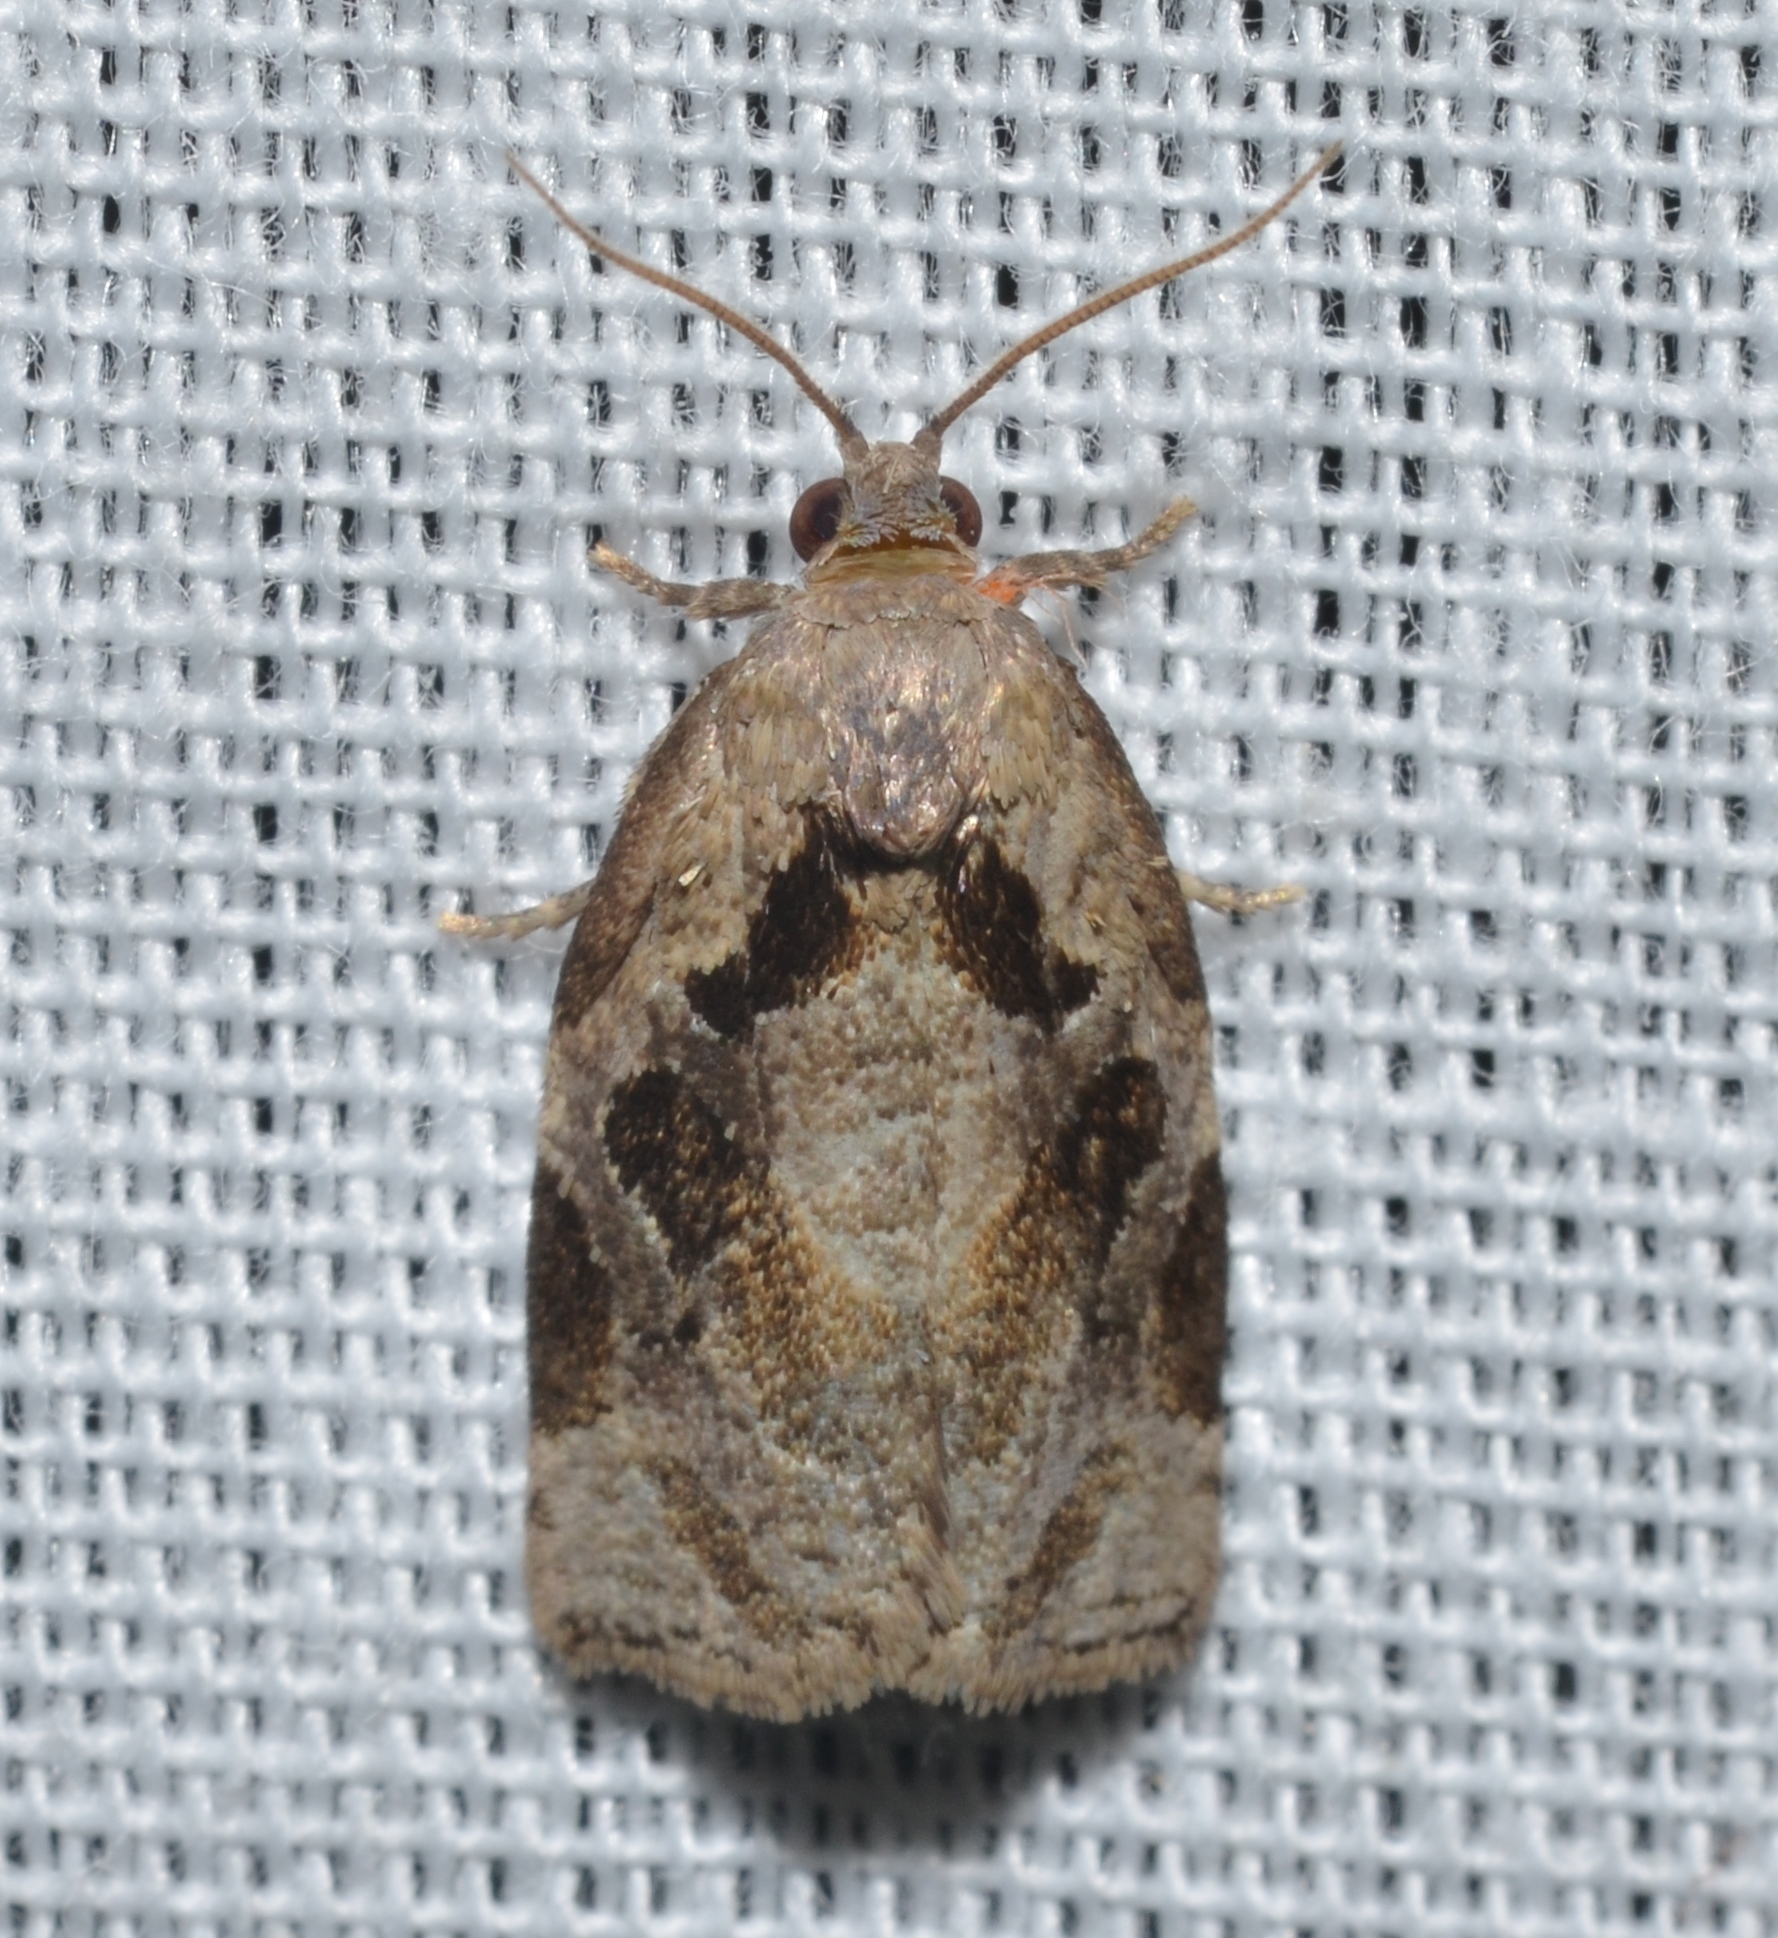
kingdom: Animalia
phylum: Arthropoda
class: Insecta
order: Lepidoptera
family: Tortricidae
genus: Archips
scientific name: Archips grisea
